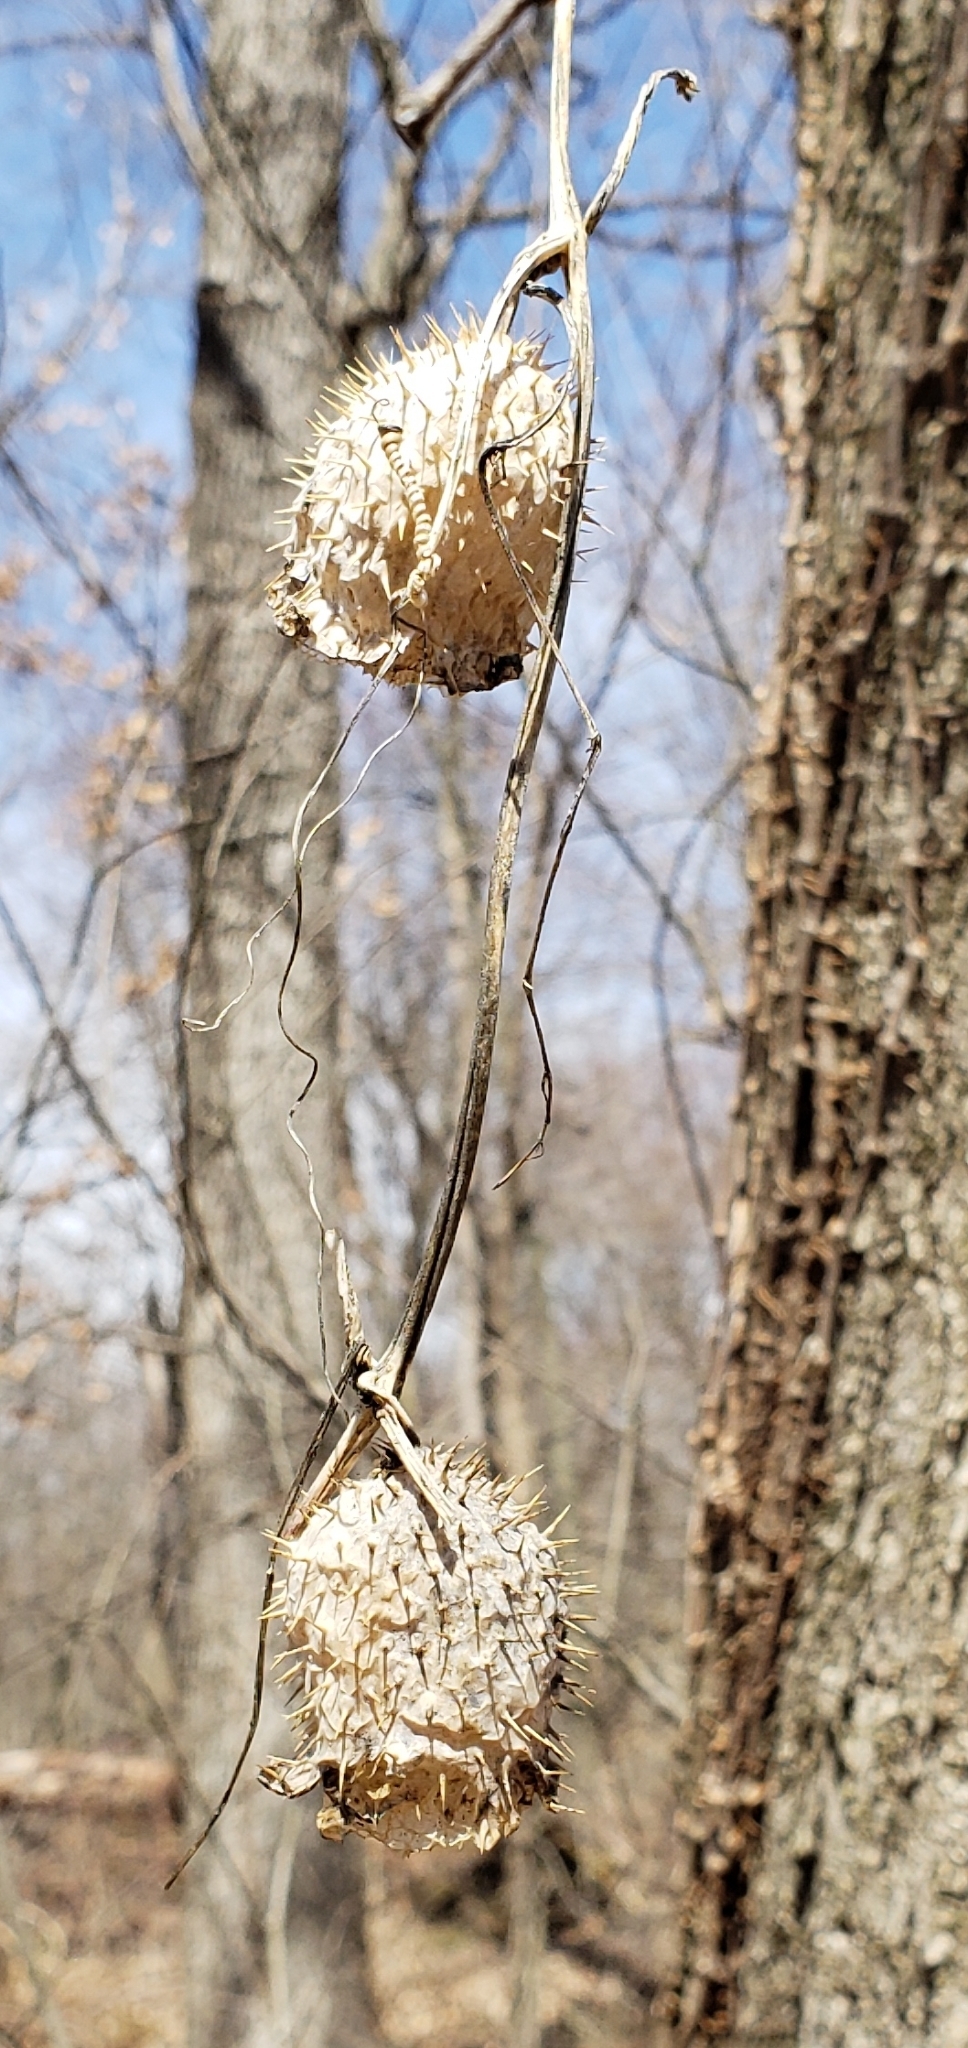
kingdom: Plantae
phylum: Tracheophyta
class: Magnoliopsida
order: Cucurbitales
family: Cucurbitaceae
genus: Echinocystis
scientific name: Echinocystis lobata
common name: Wild cucumber
